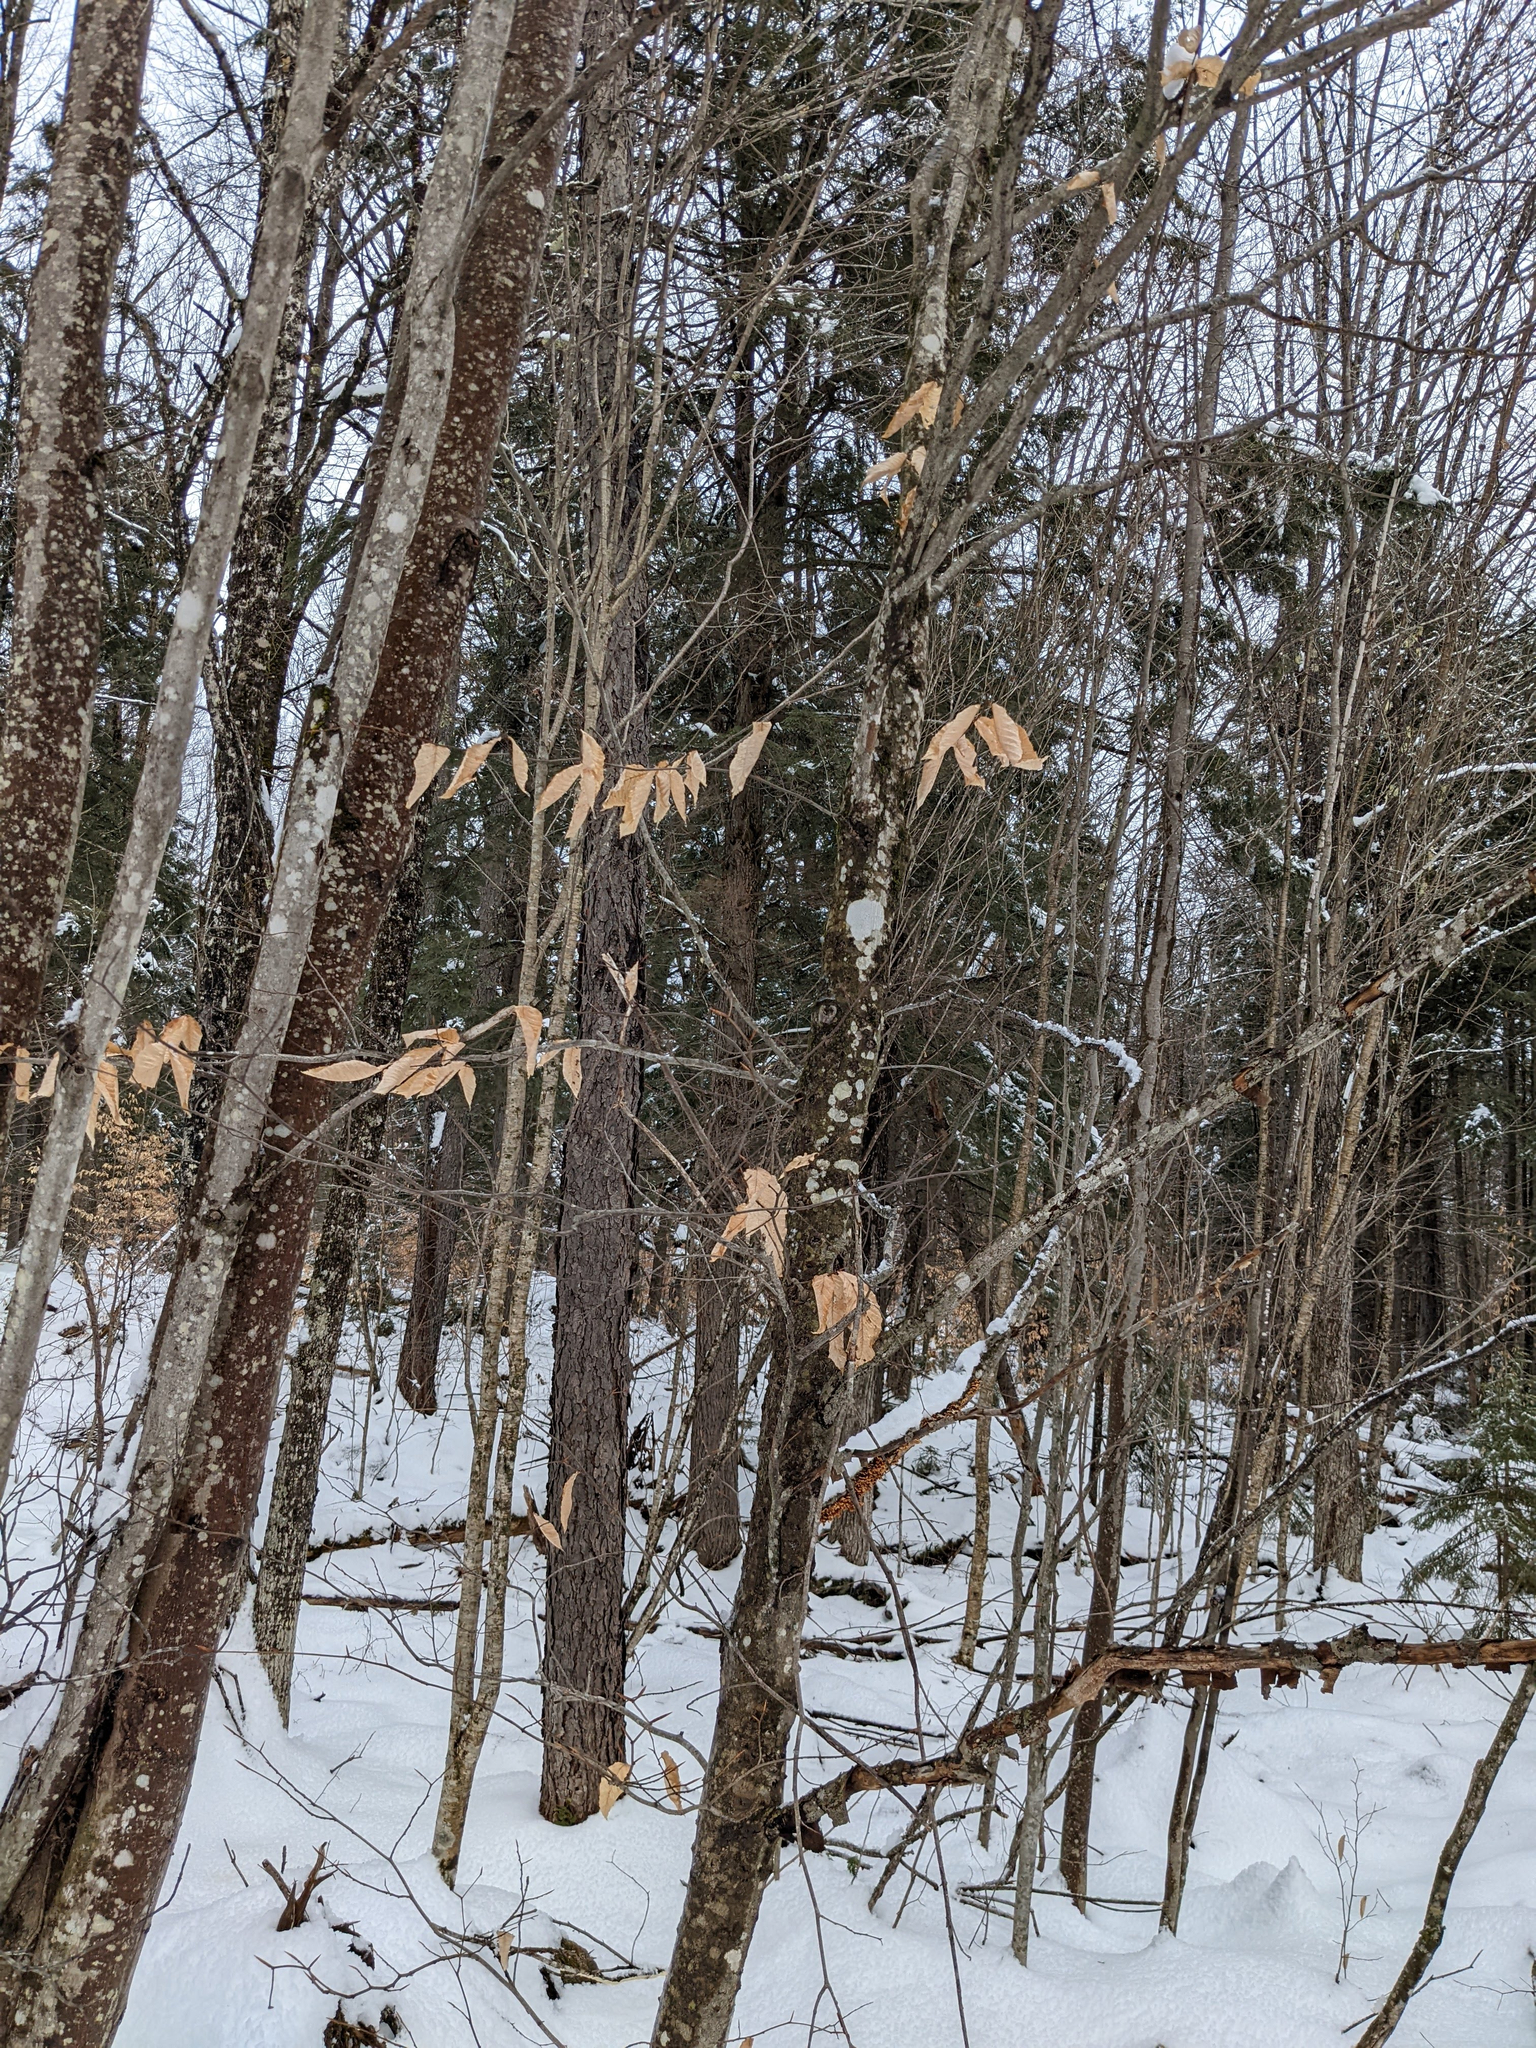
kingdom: Plantae
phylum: Tracheophyta
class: Magnoliopsida
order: Fagales
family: Fagaceae
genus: Fagus
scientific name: Fagus grandifolia
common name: American beech
